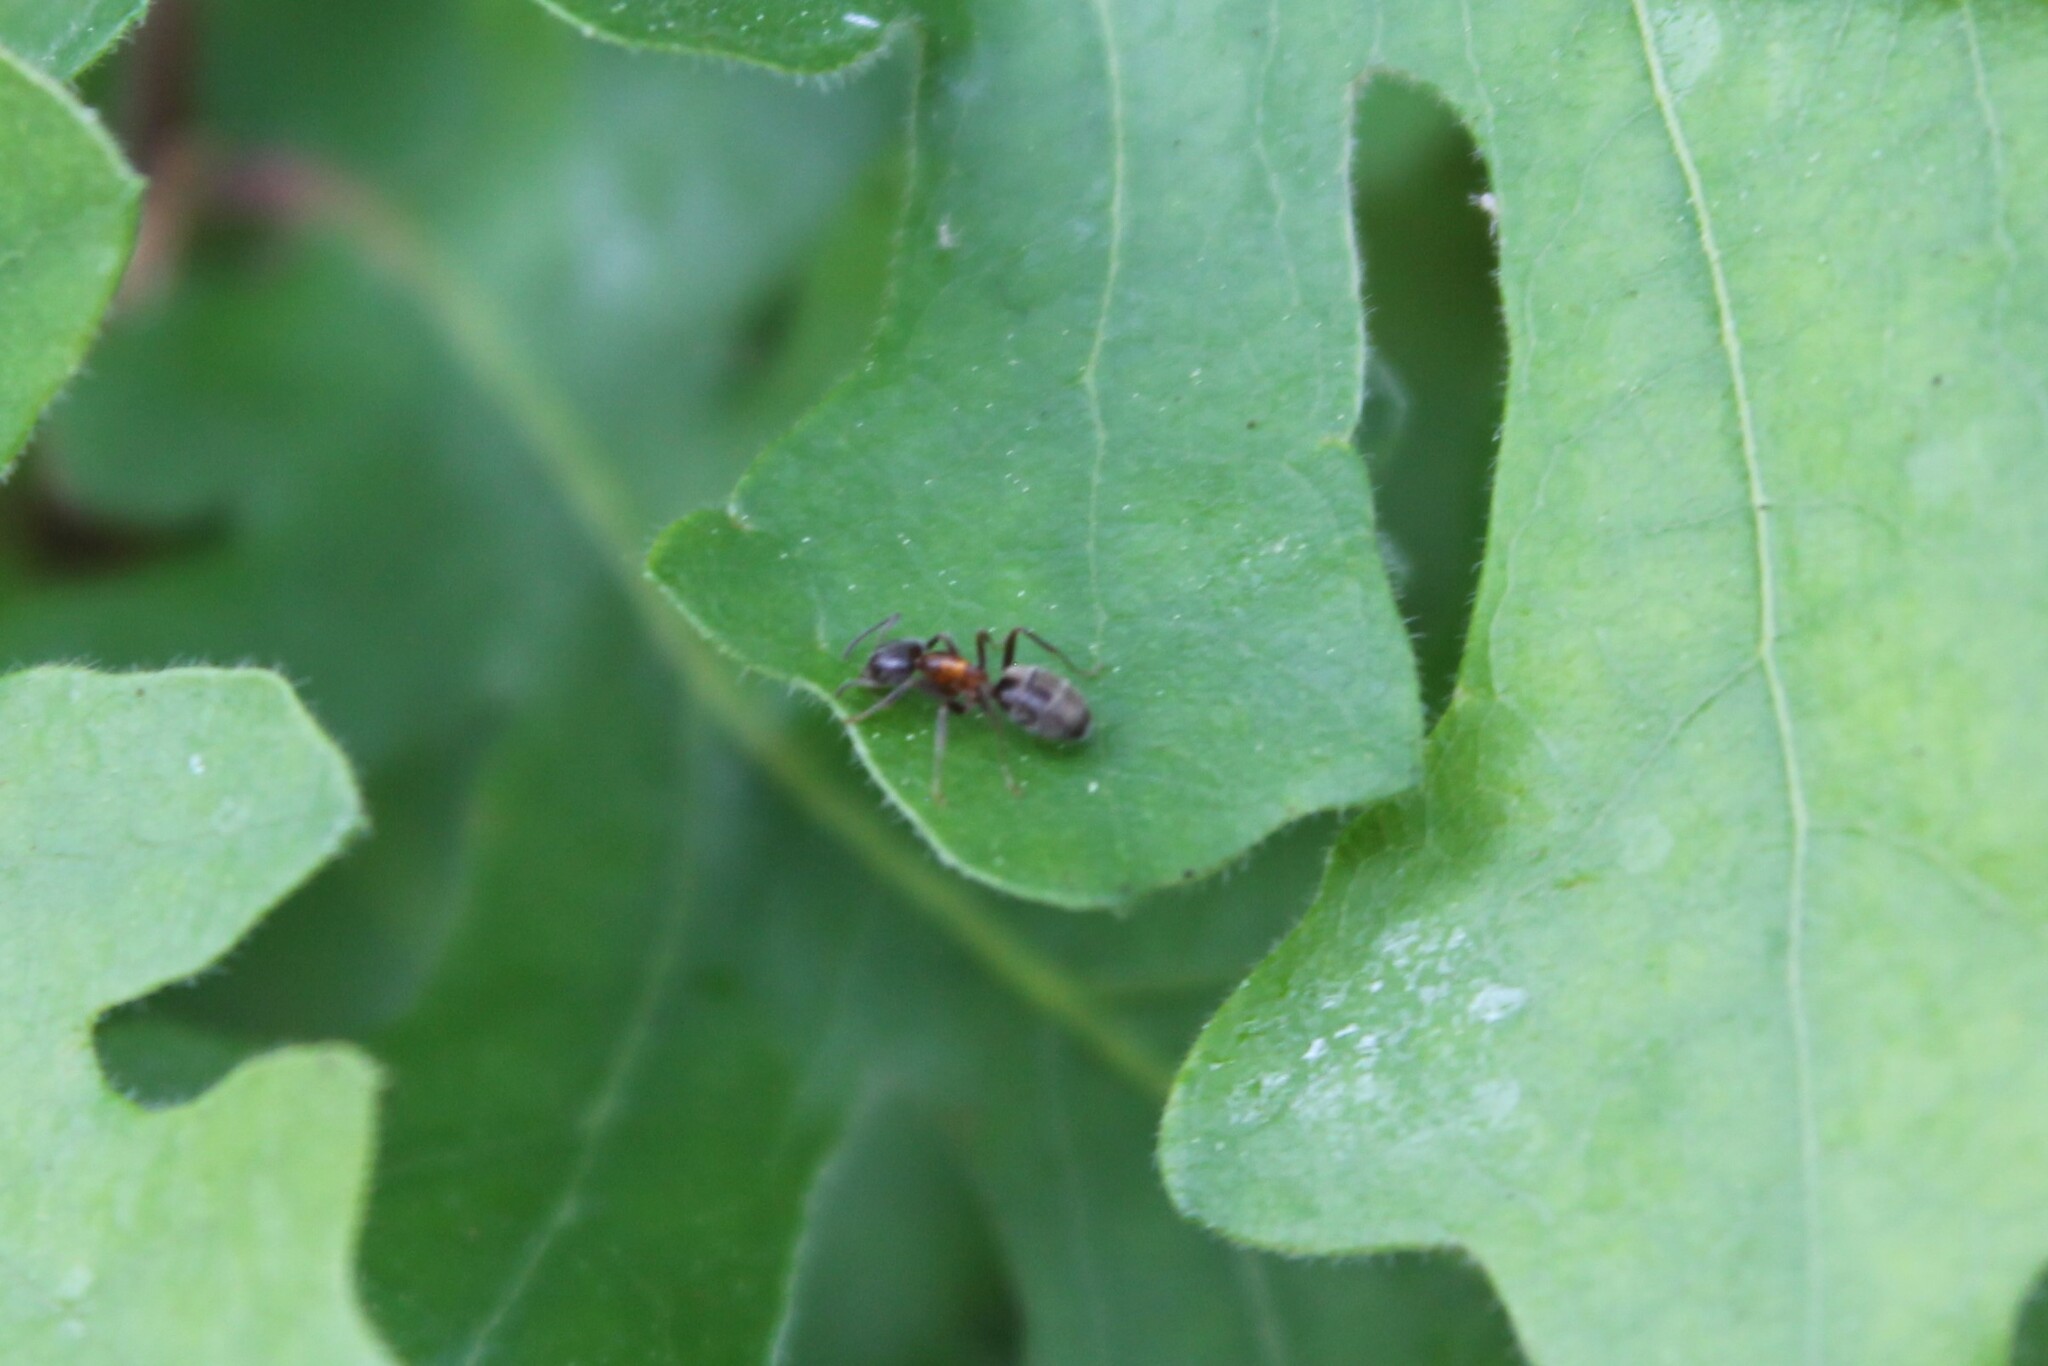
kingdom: Animalia
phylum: Arthropoda
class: Insecta
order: Hymenoptera
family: Formicidae
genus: Liometopum
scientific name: Liometopum occidentale
